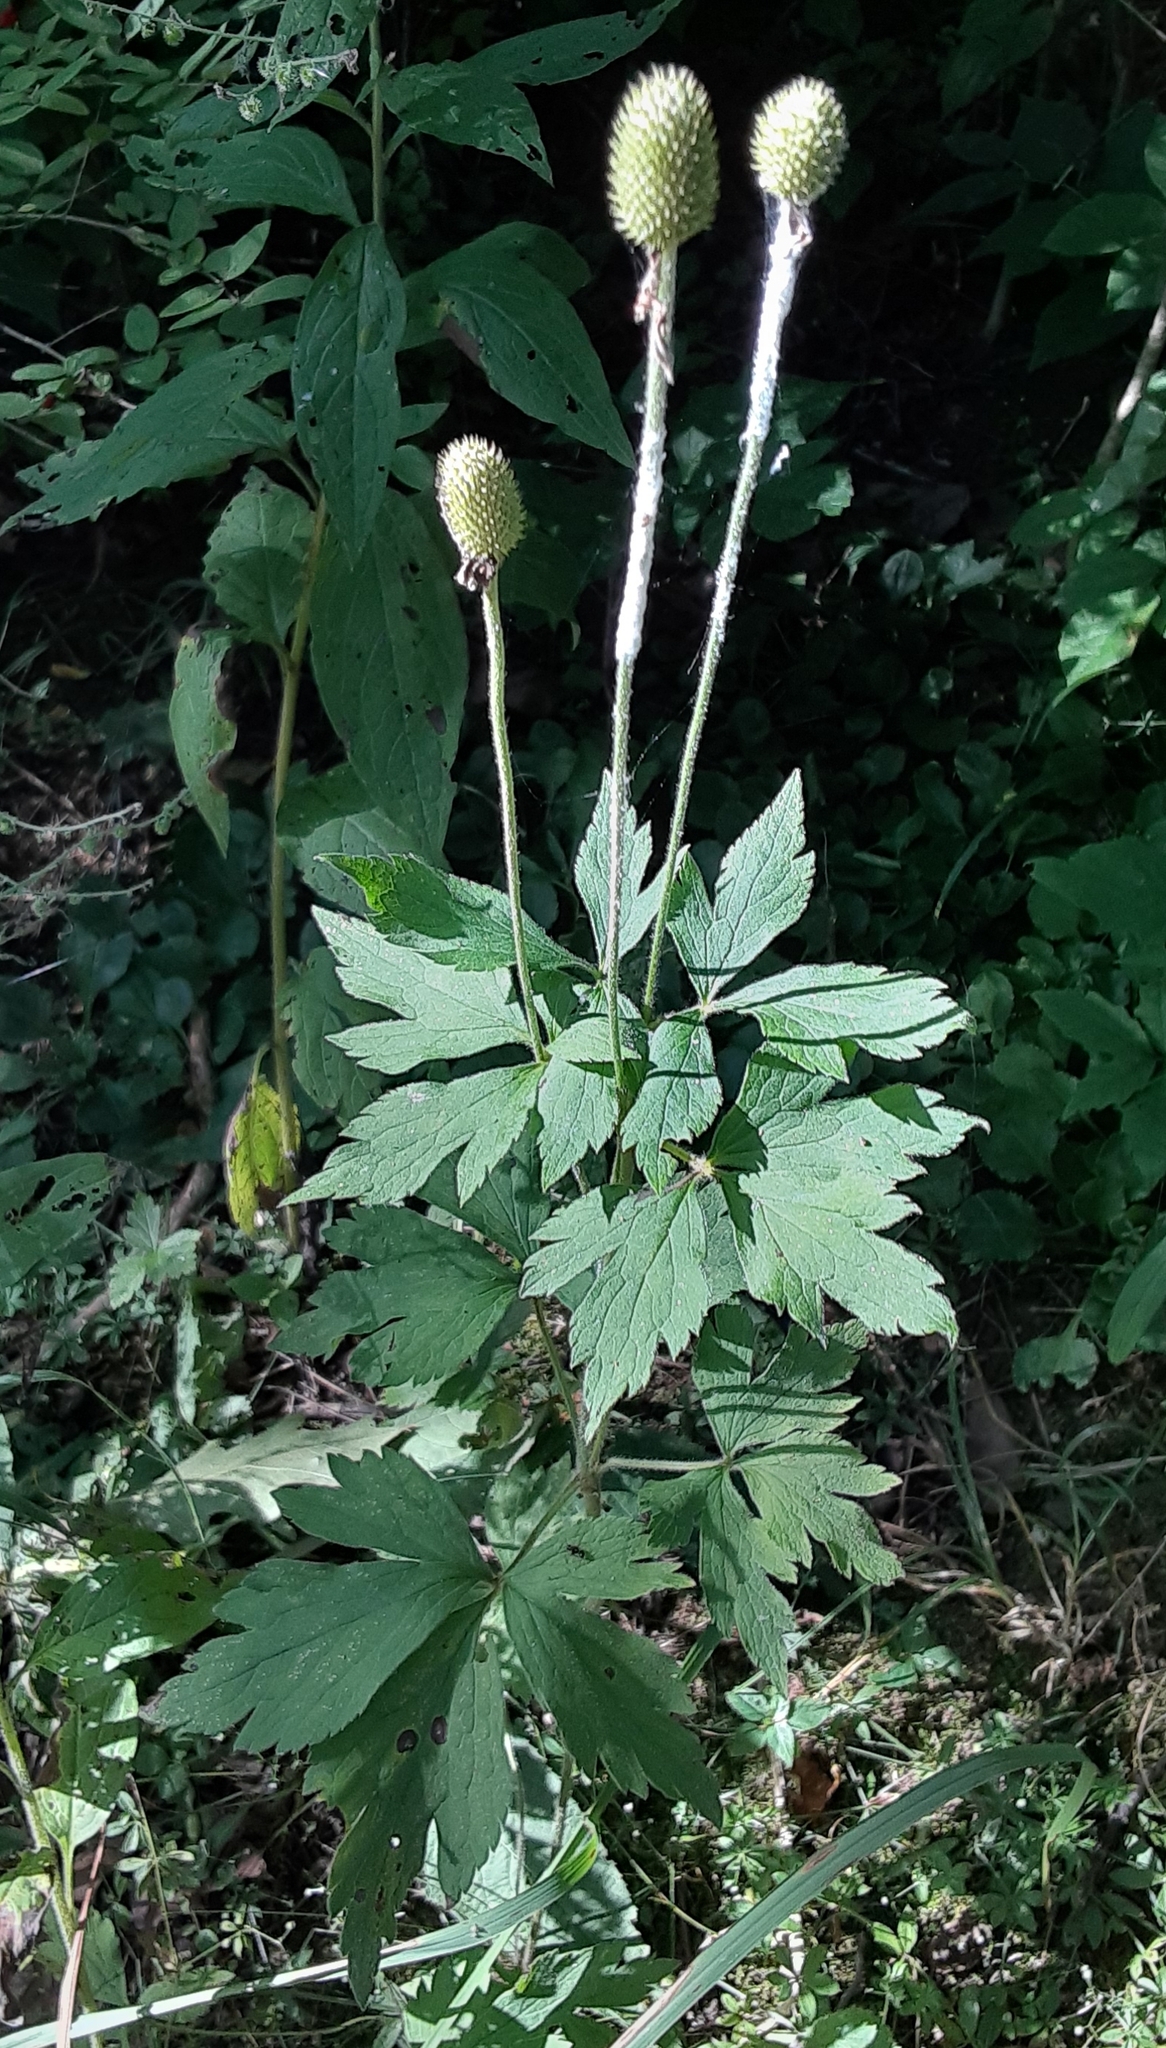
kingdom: Plantae
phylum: Tracheophyta
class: Magnoliopsida
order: Ranunculales
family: Ranunculaceae
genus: Anemone
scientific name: Anemone virginiana
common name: Tall anemone
